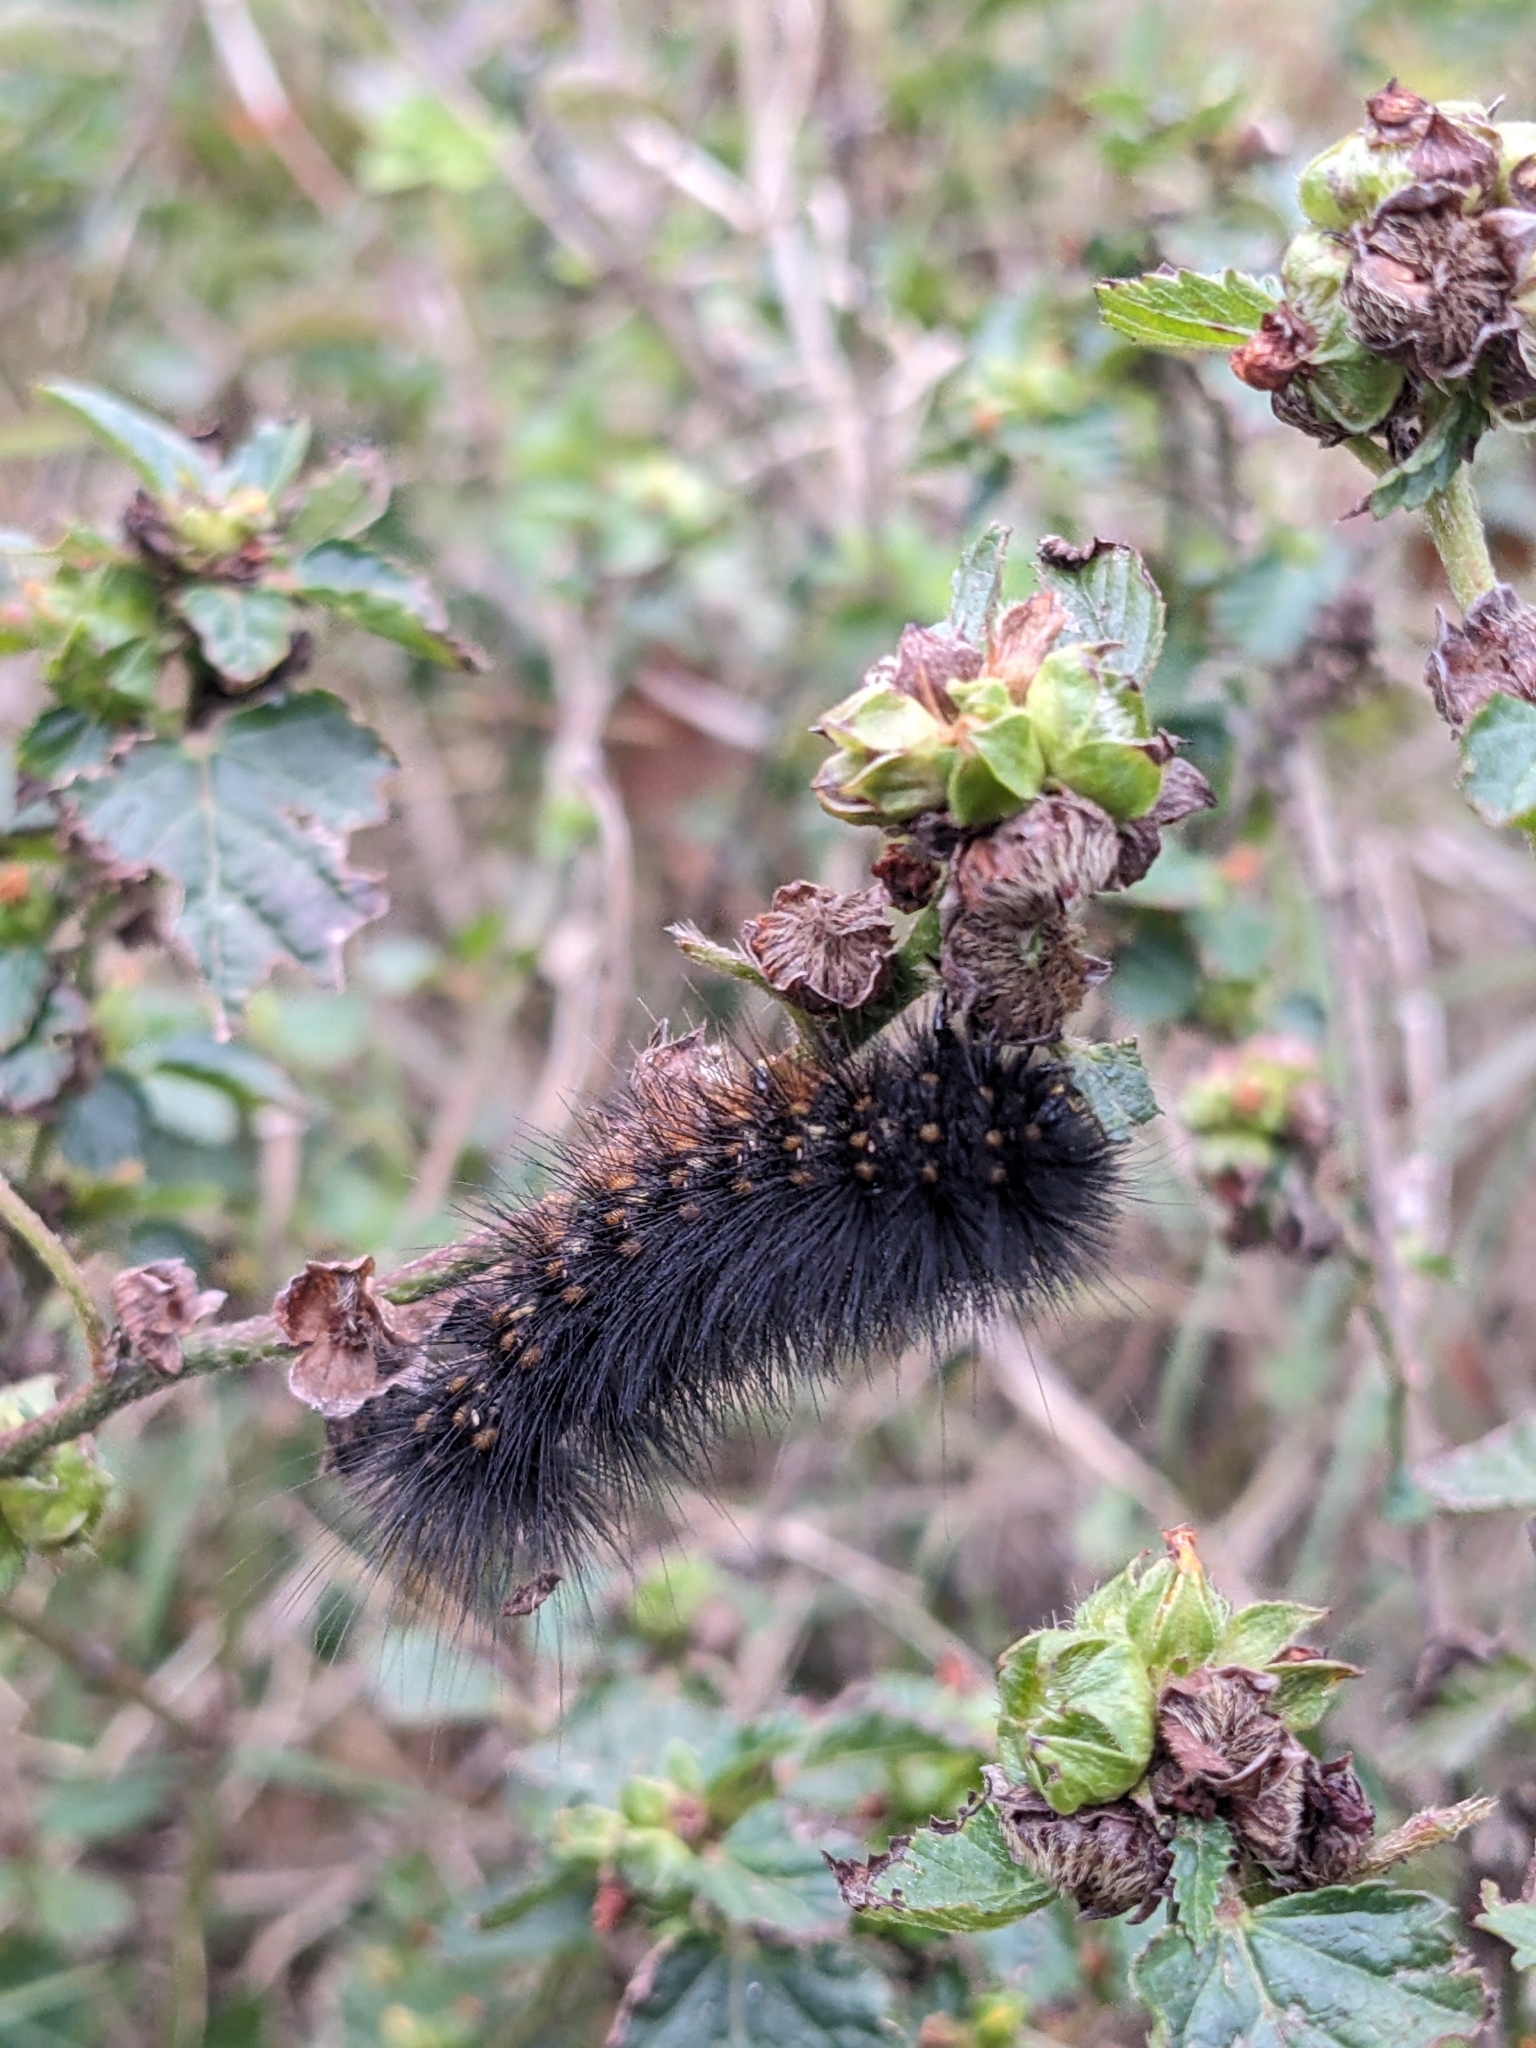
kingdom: Animalia
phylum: Arthropoda
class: Insecta
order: Lepidoptera
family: Erebidae
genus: Estigmene
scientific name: Estigmene acrea
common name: Salt marsh moth
